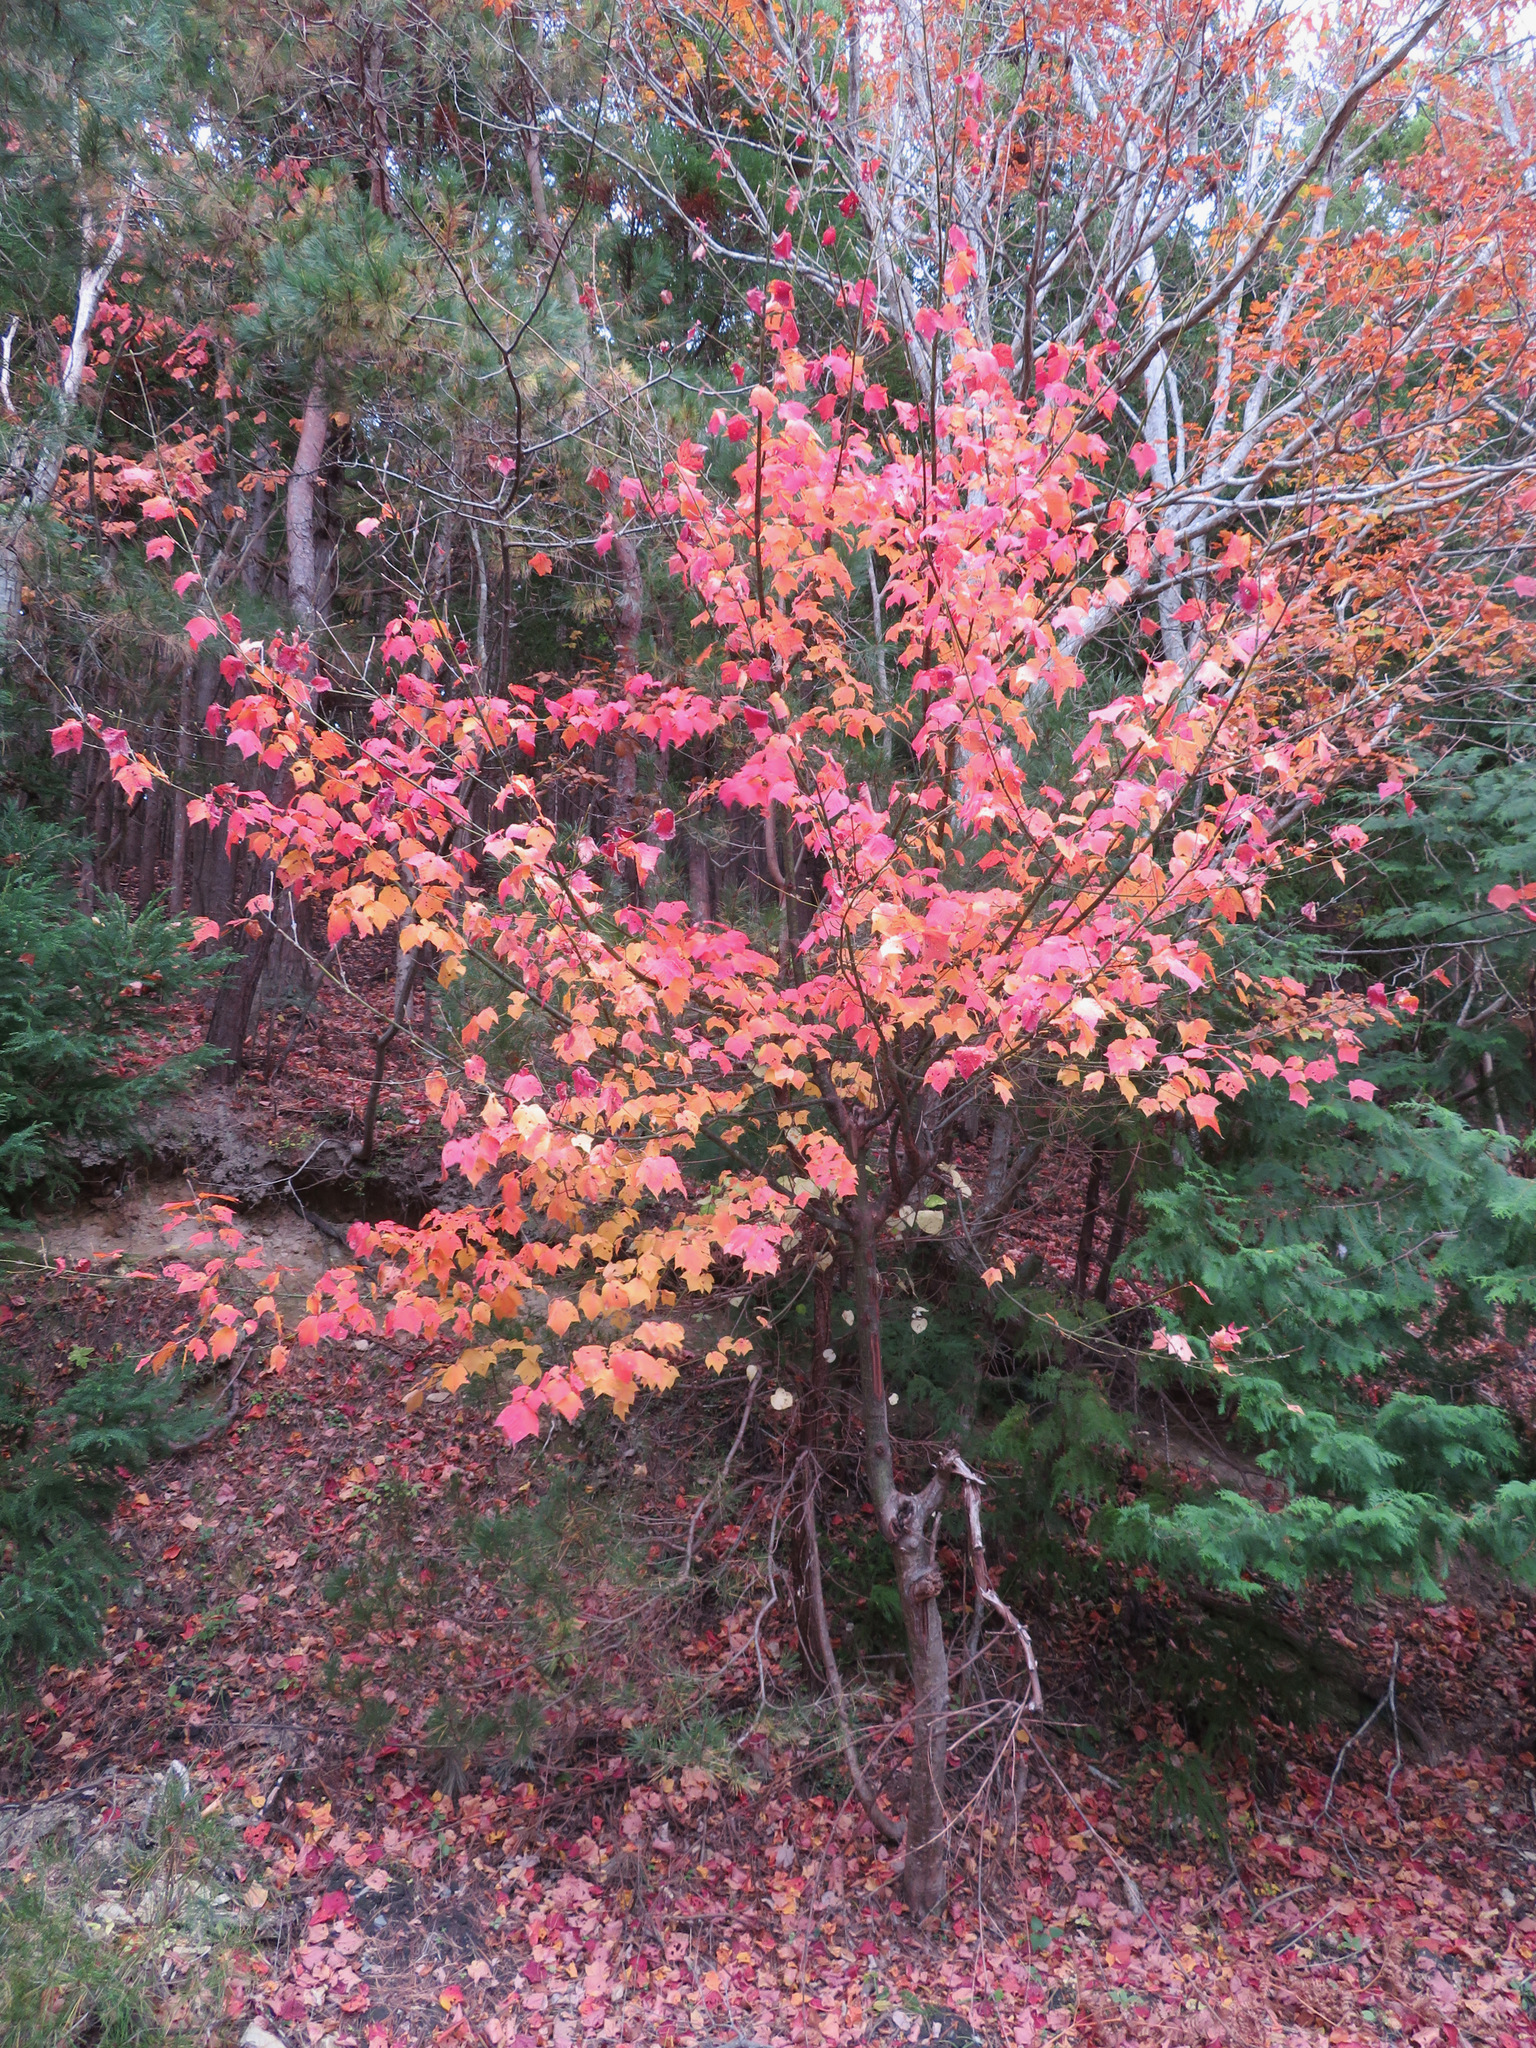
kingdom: Plantae
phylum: Tracheophyta
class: Magnoliopsida
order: Sapindales
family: Sapindaceae
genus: Acer
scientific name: Acer rufinerve
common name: Red veined maple
